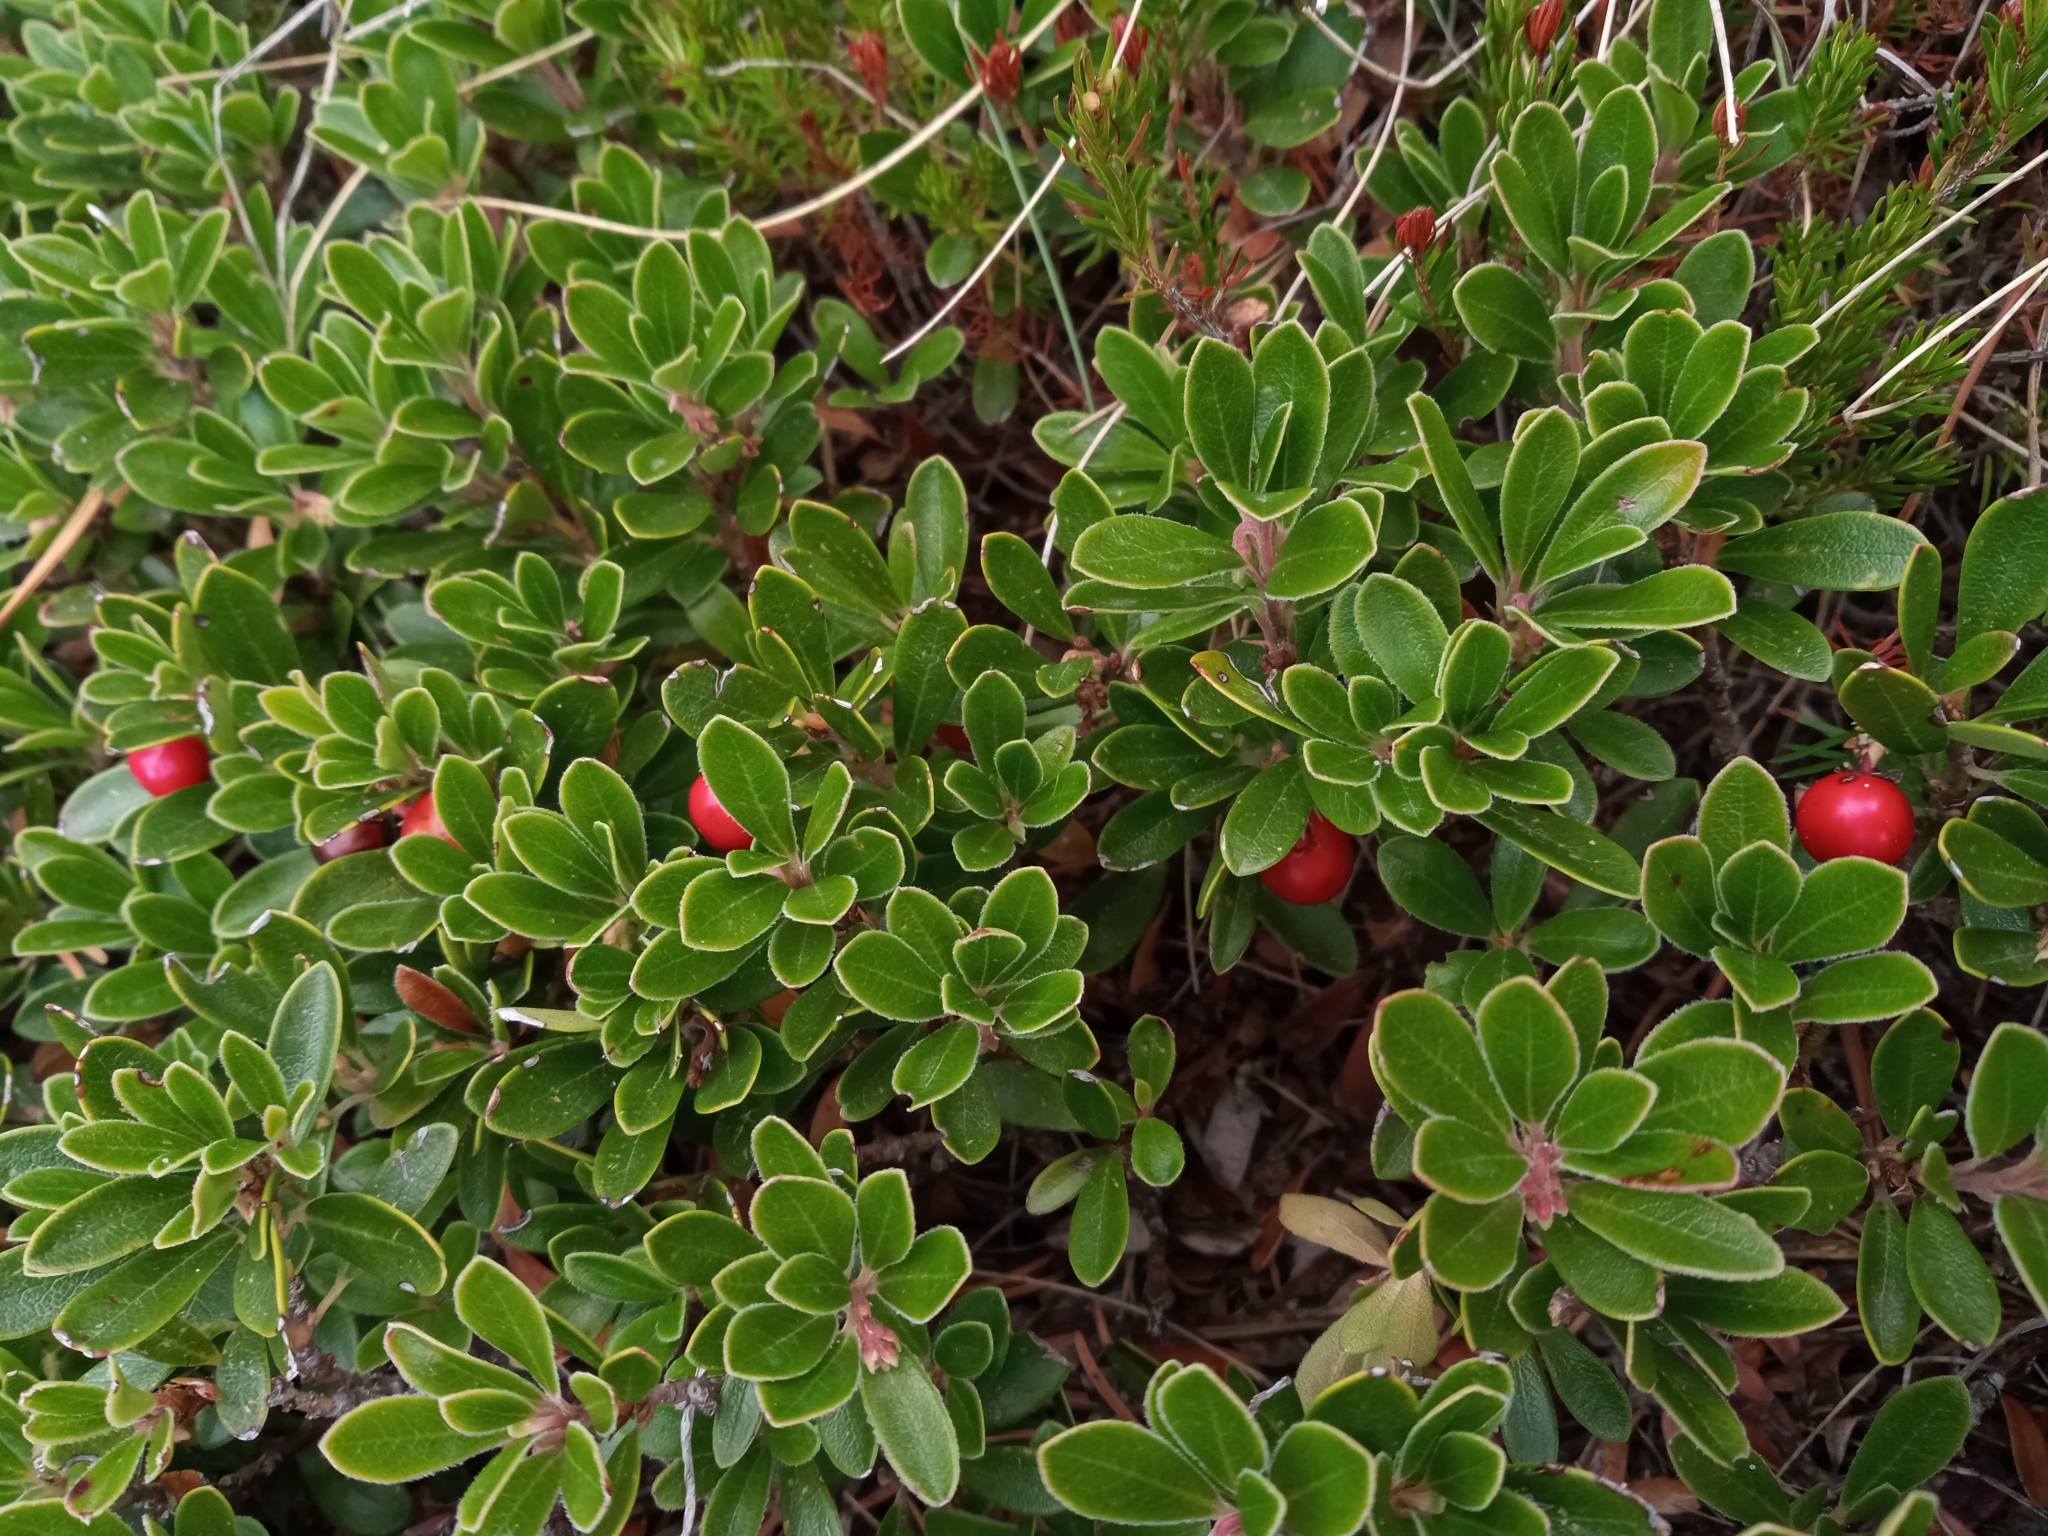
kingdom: Plantae
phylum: Tracheophyta
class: Magnoliopsida
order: Ericales
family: Ericaceae
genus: Arctostaphylos
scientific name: Arctostaphylos uva-ursi
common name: Bearberry
